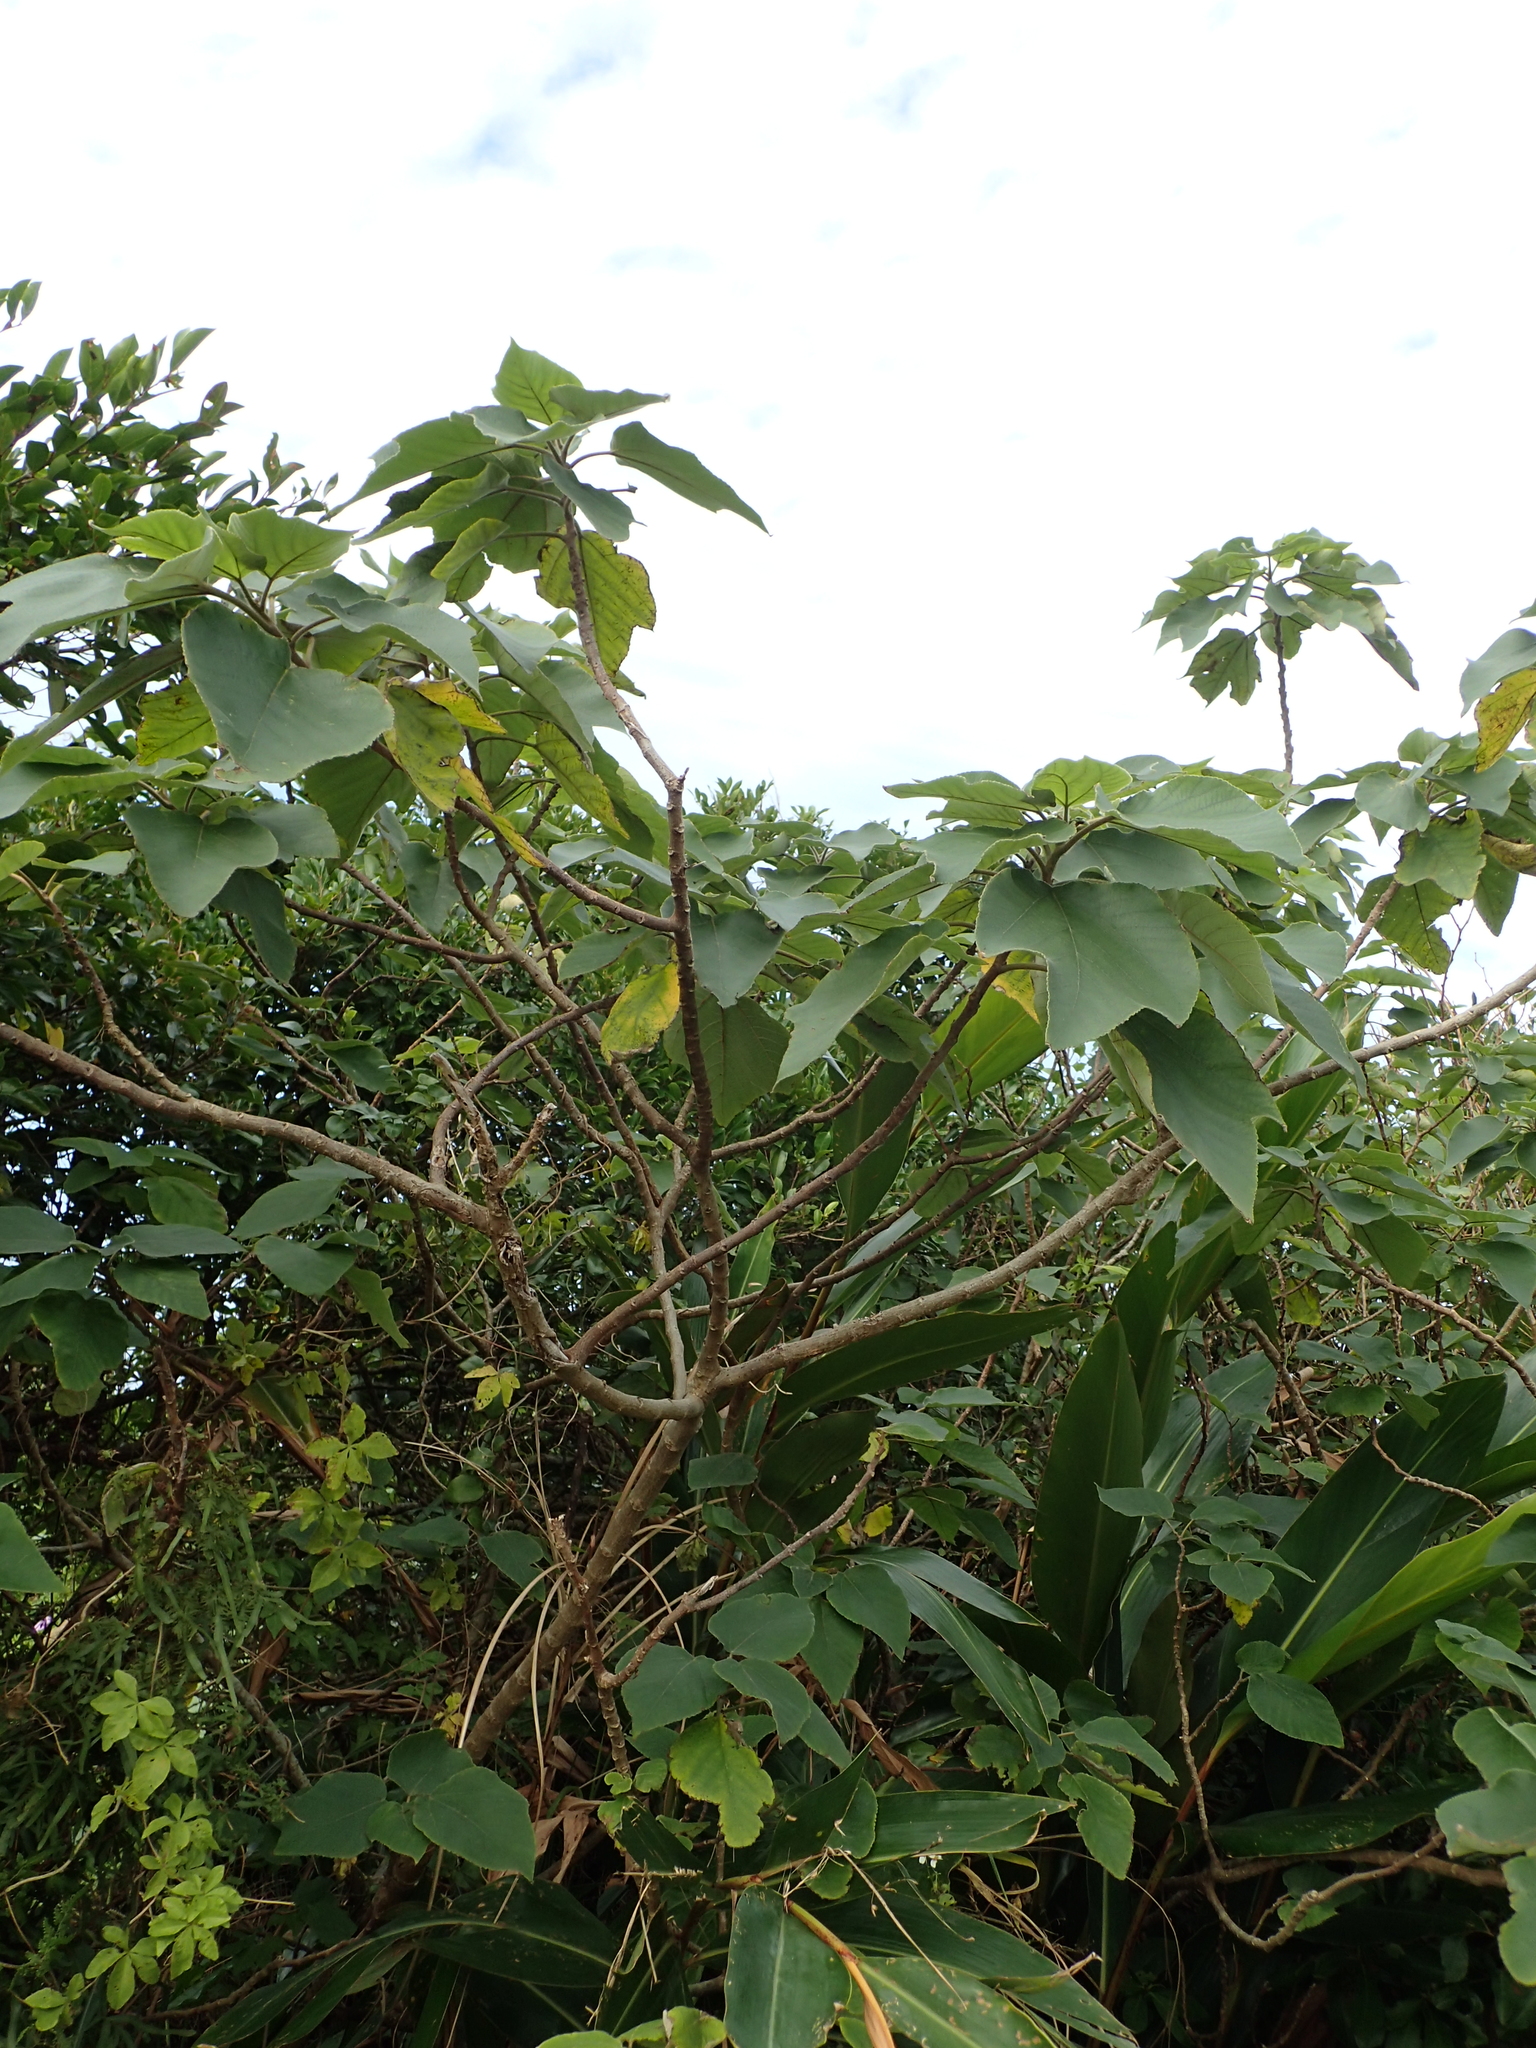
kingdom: Plantae
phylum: Tracheophyta
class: Magnoliopsida
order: Rosales
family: Moraceae
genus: Broussonetia
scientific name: Broussonetia papyrifera
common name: Paper mulberry
